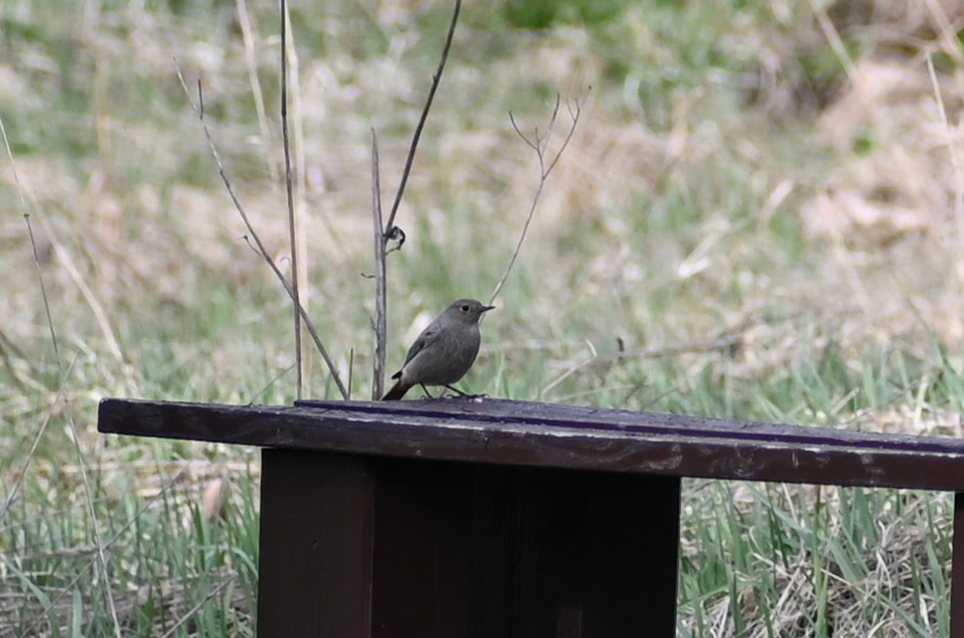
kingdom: Animalia
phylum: Chordata
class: Aves
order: Passeriformes
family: Muscicapidae
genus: Phoenicurus
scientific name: Phoenicurus ochruros
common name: Black redstart
